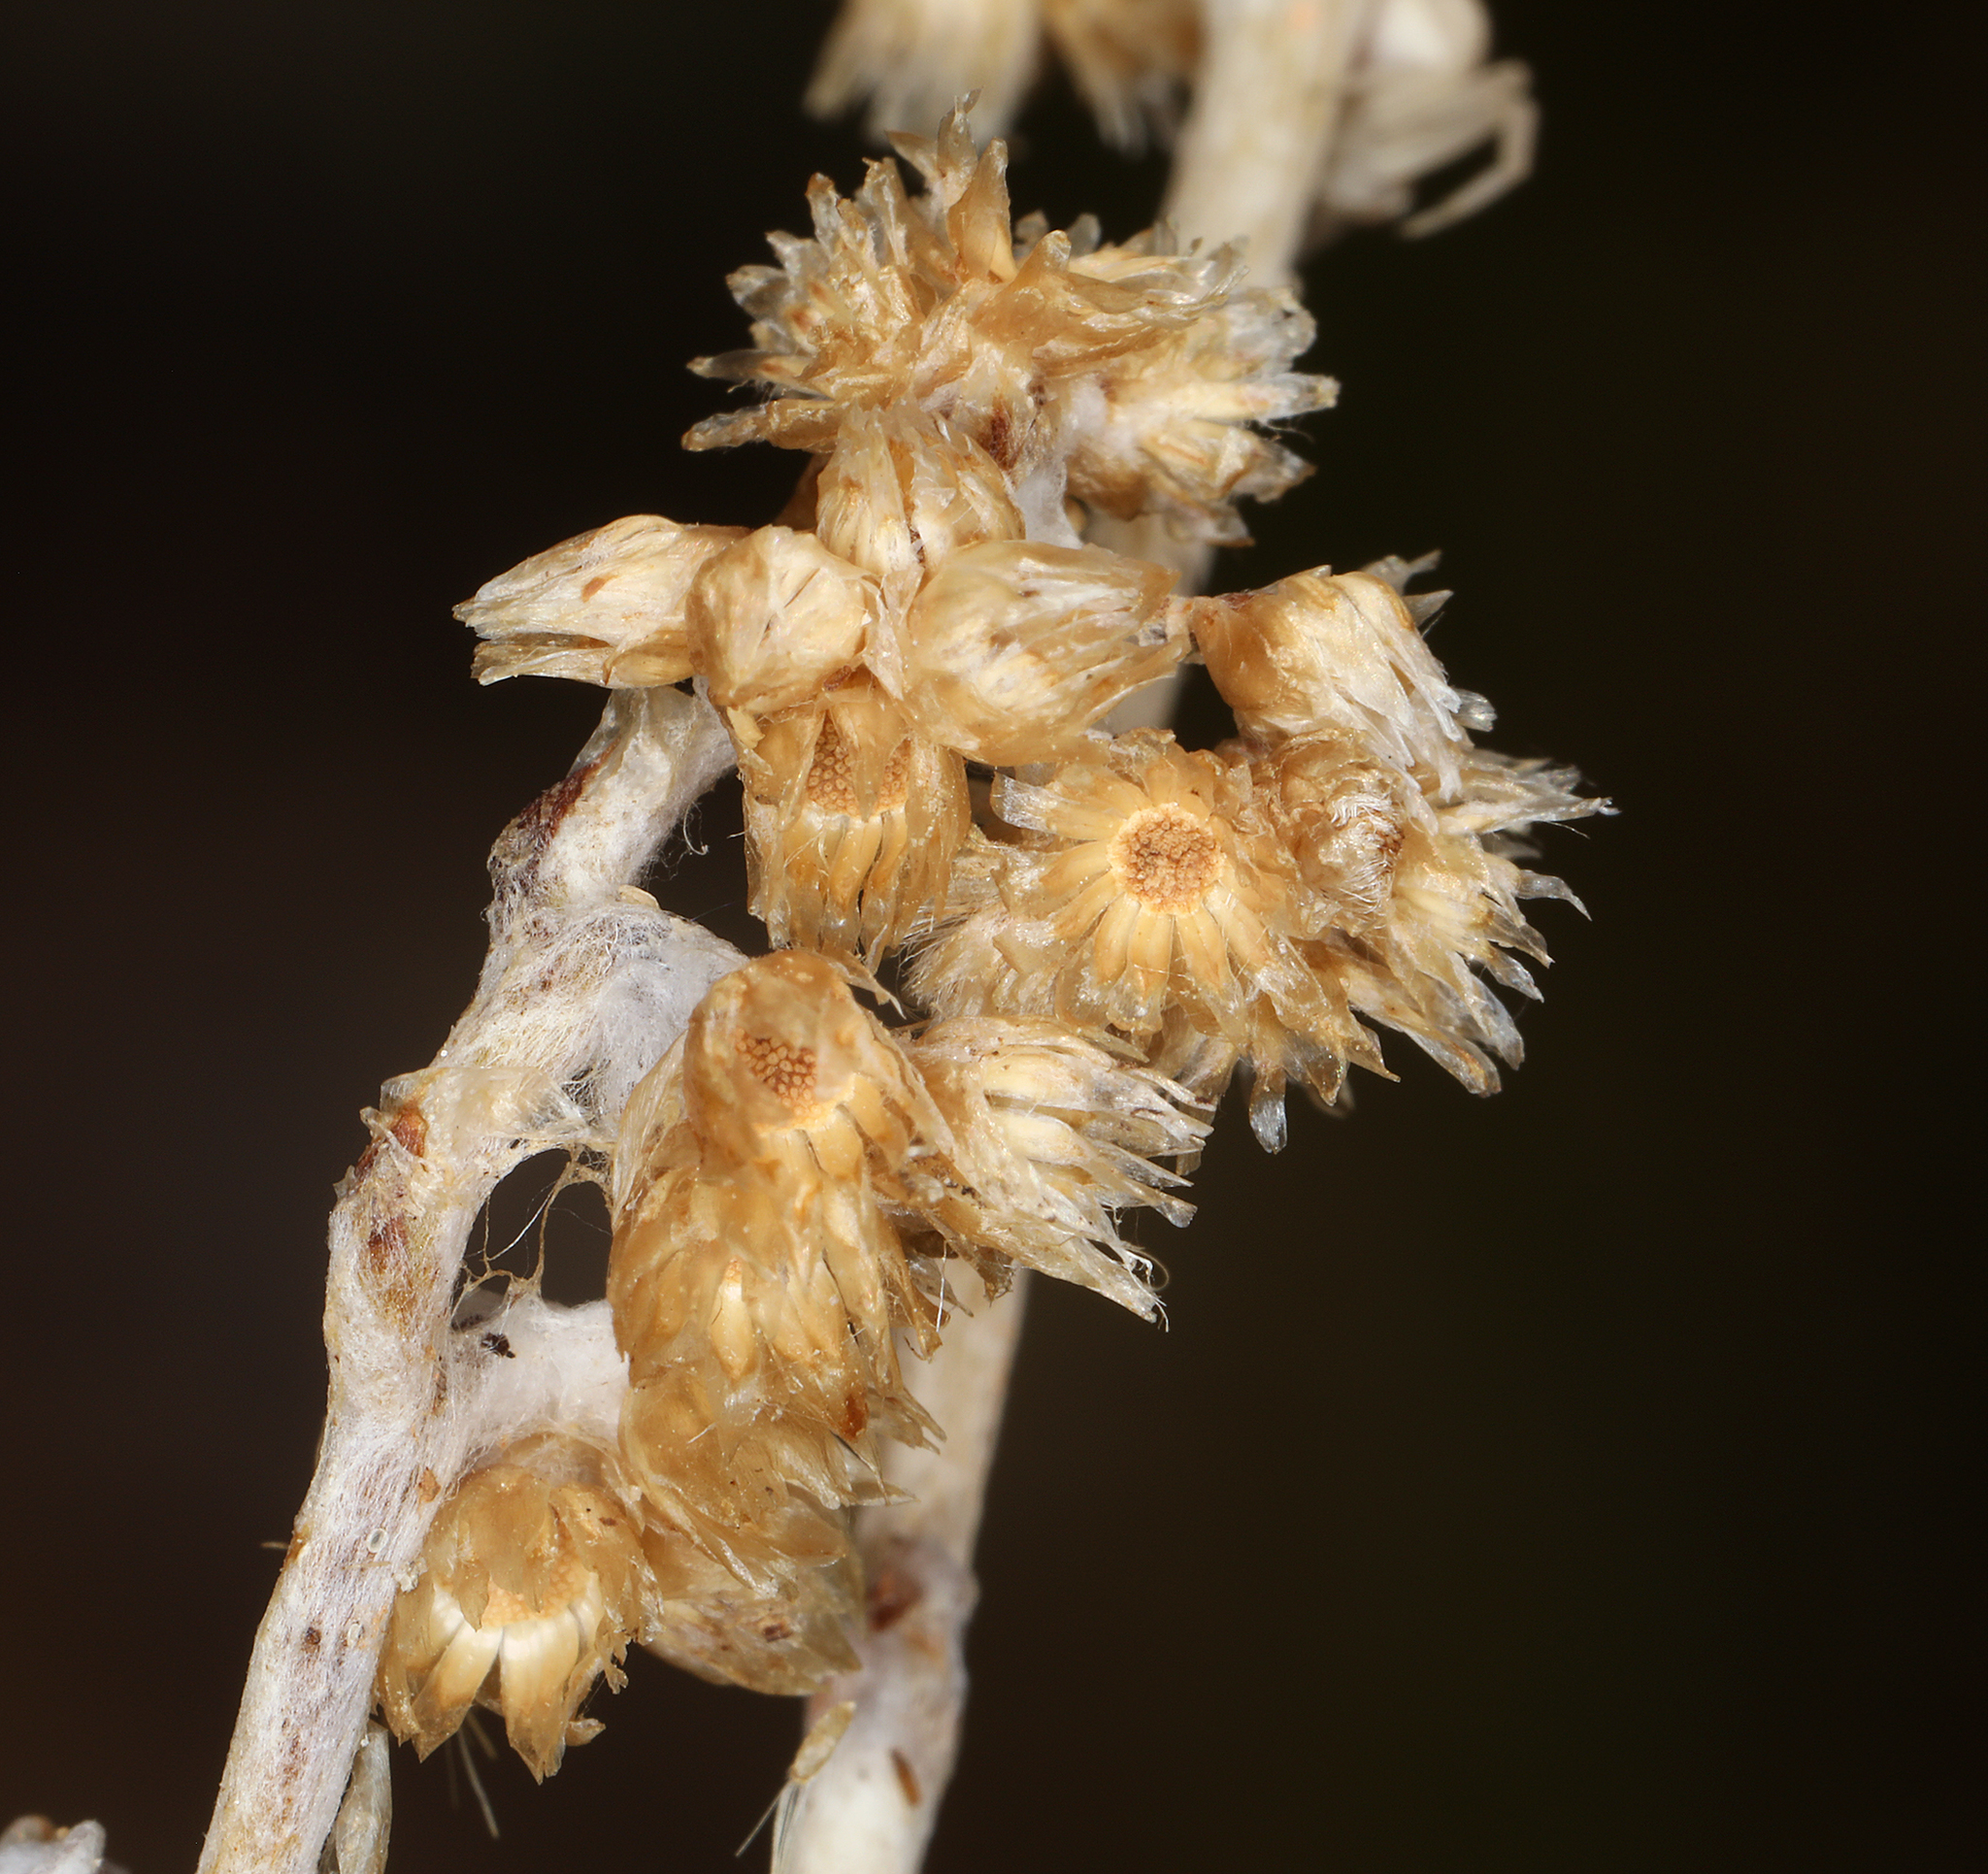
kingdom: Plantae
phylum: Tracheophyta
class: Magnoliopsida
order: Asterales
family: Asteraceae
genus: Helichrysum
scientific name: Helichrysum luteoalbum
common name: Daisy
